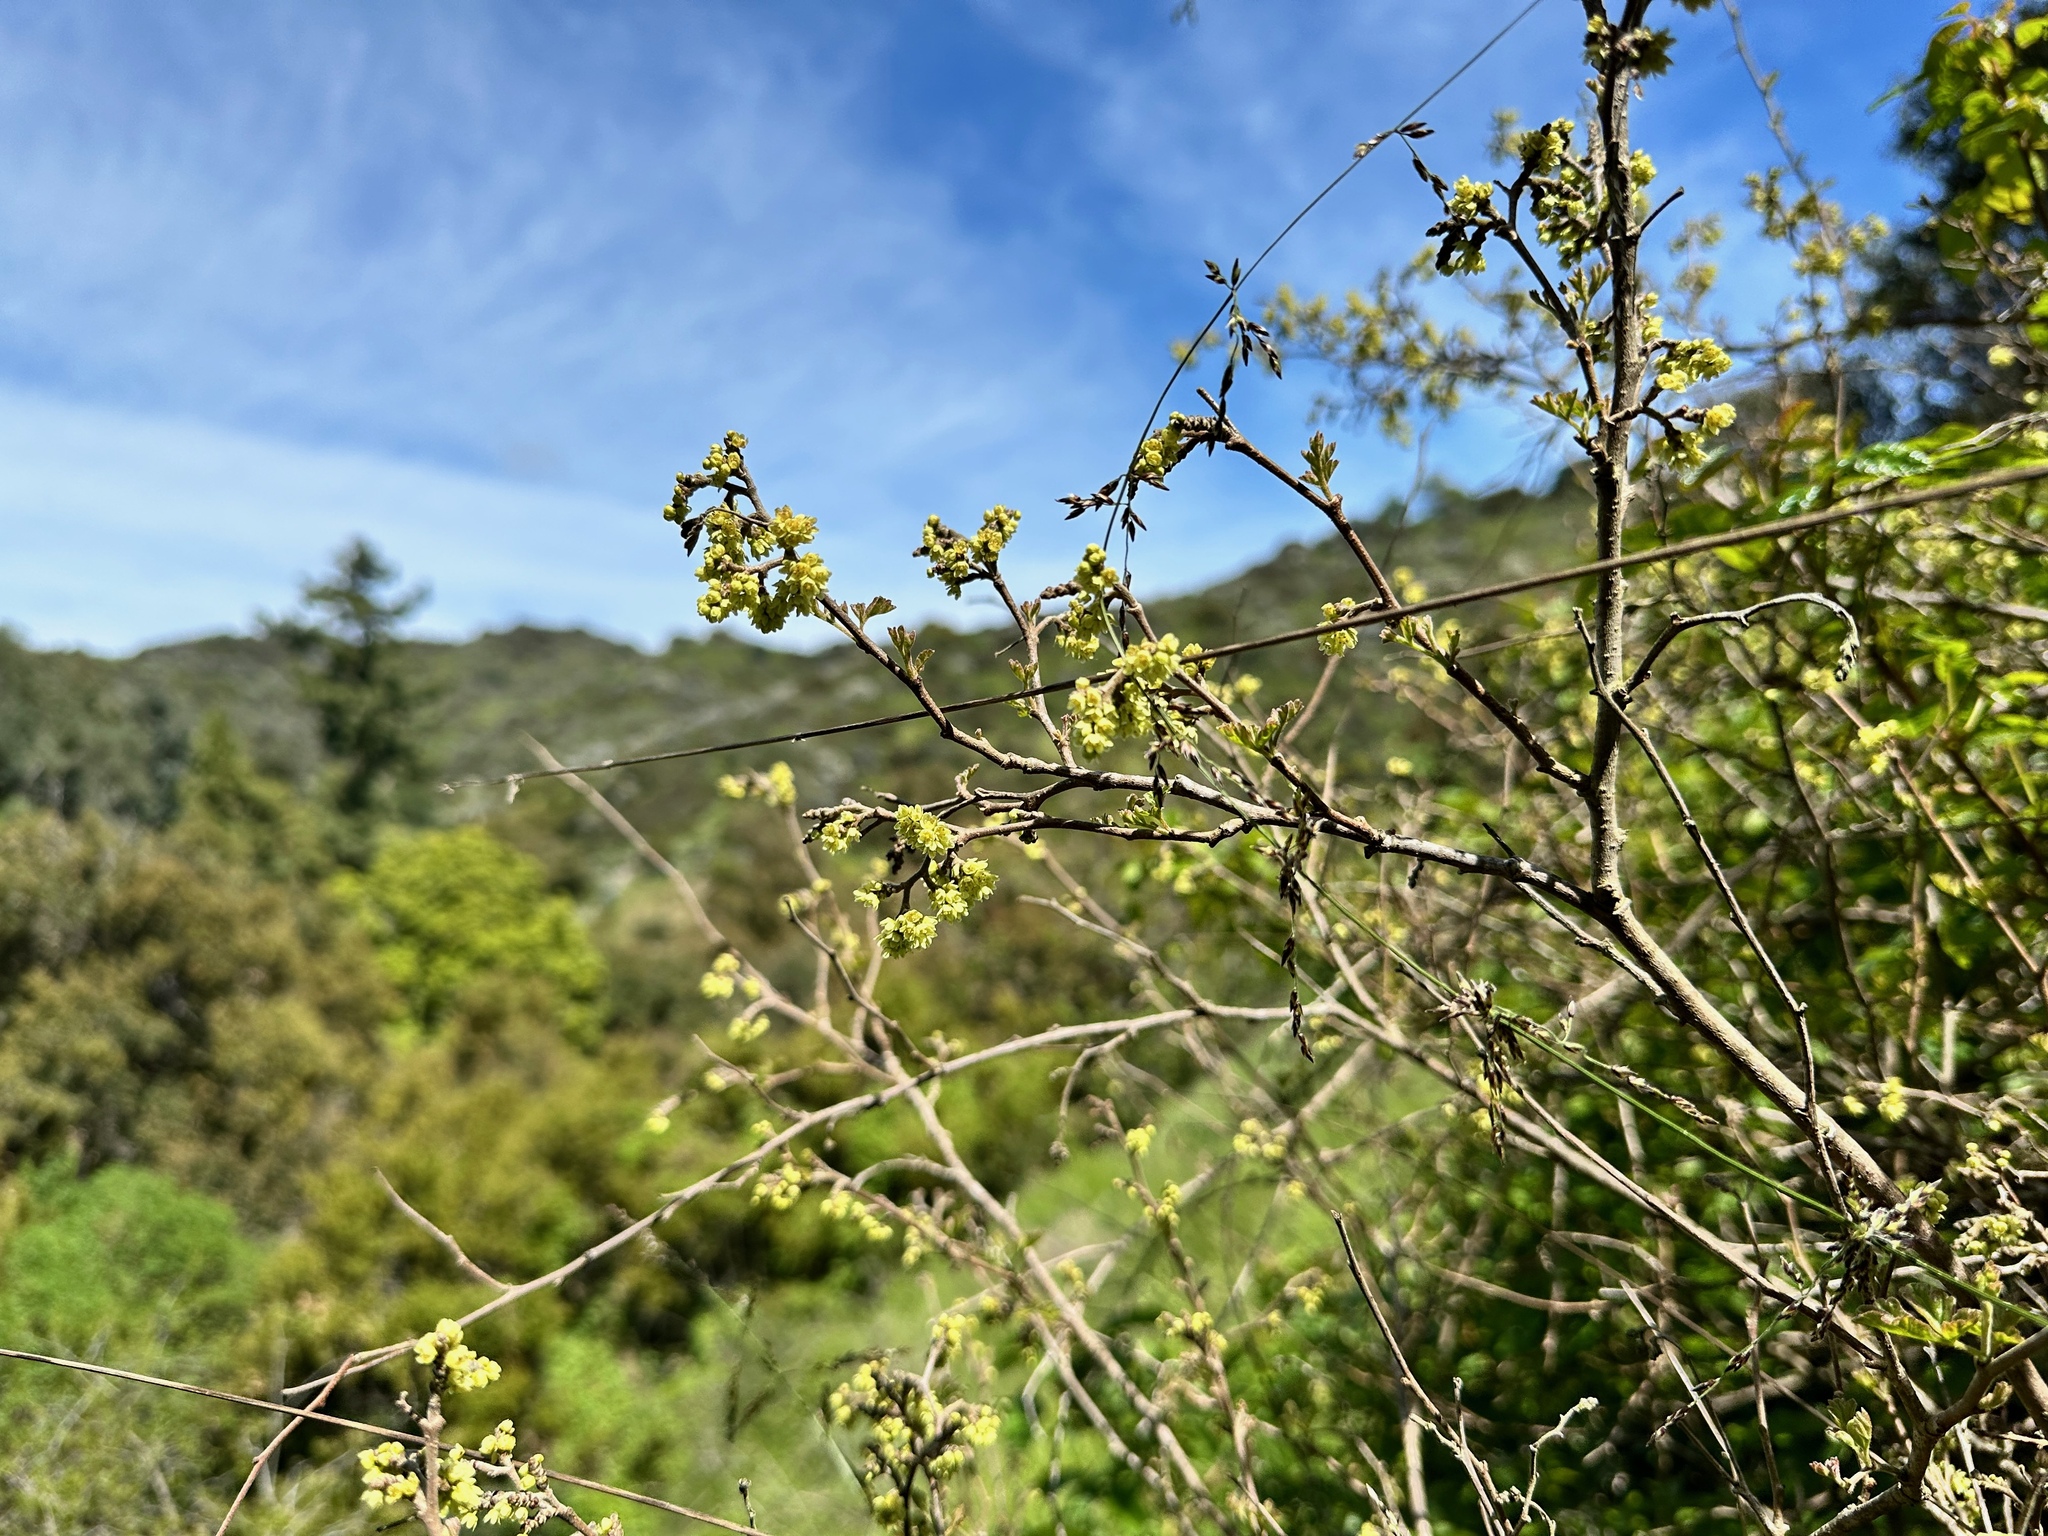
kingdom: Plantae
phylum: Tracheophyta
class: Magnoliopsida
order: Sapindales
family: Anacardiaceae
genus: Rhus
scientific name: Rhus aromatica
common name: Aromatic sumac
